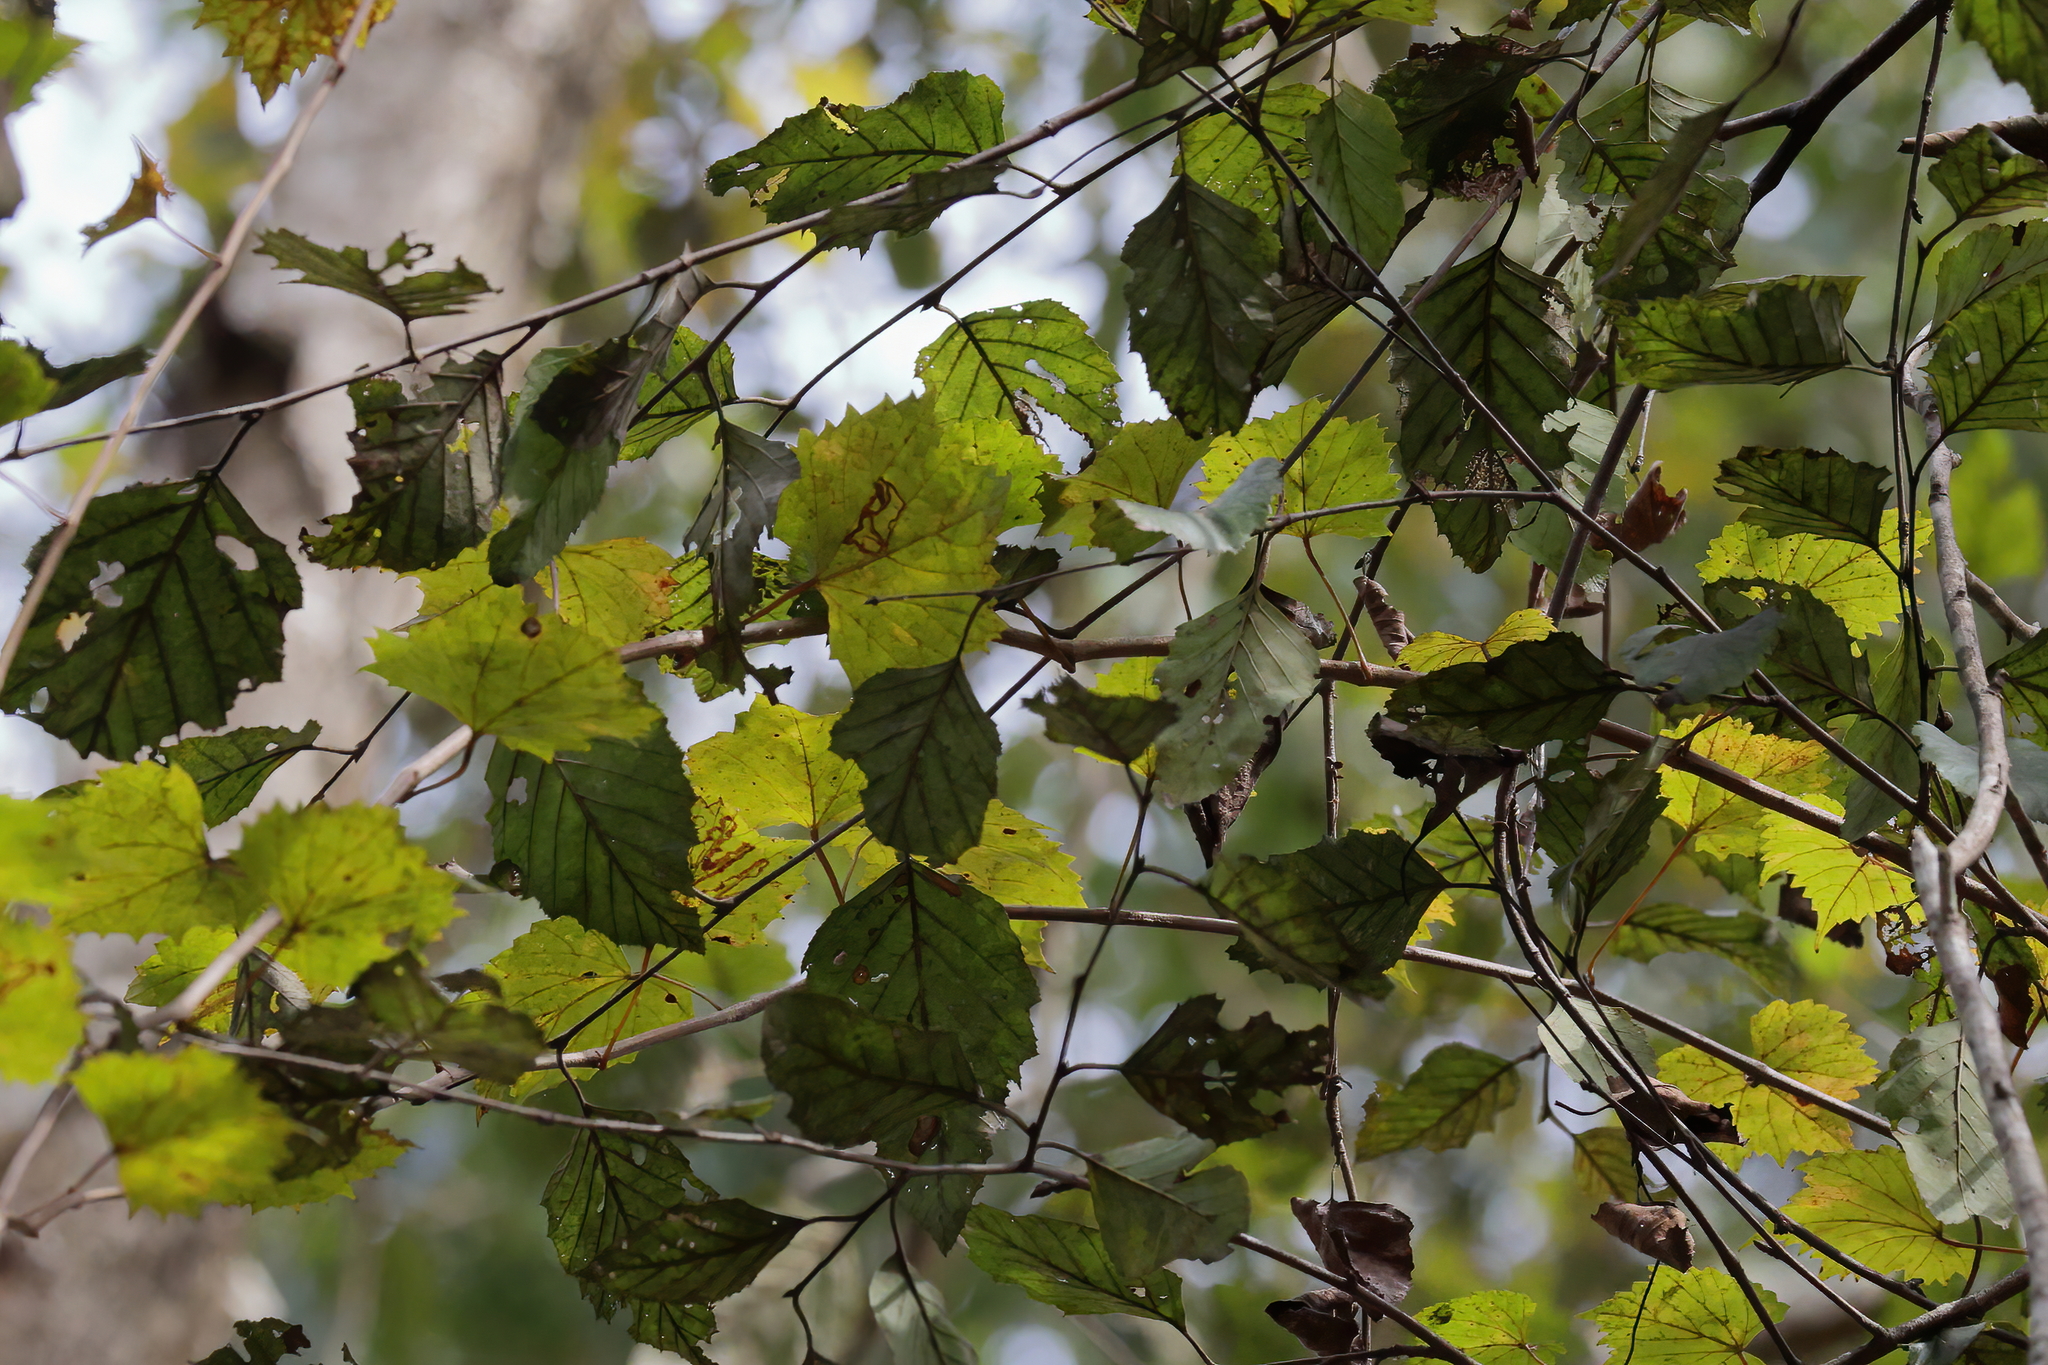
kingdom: Plantae
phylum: Tracheophyta
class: Magnoliopsida
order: Fagales
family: Betulaceae
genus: Betula
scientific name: Betula nigra
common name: Black birch
